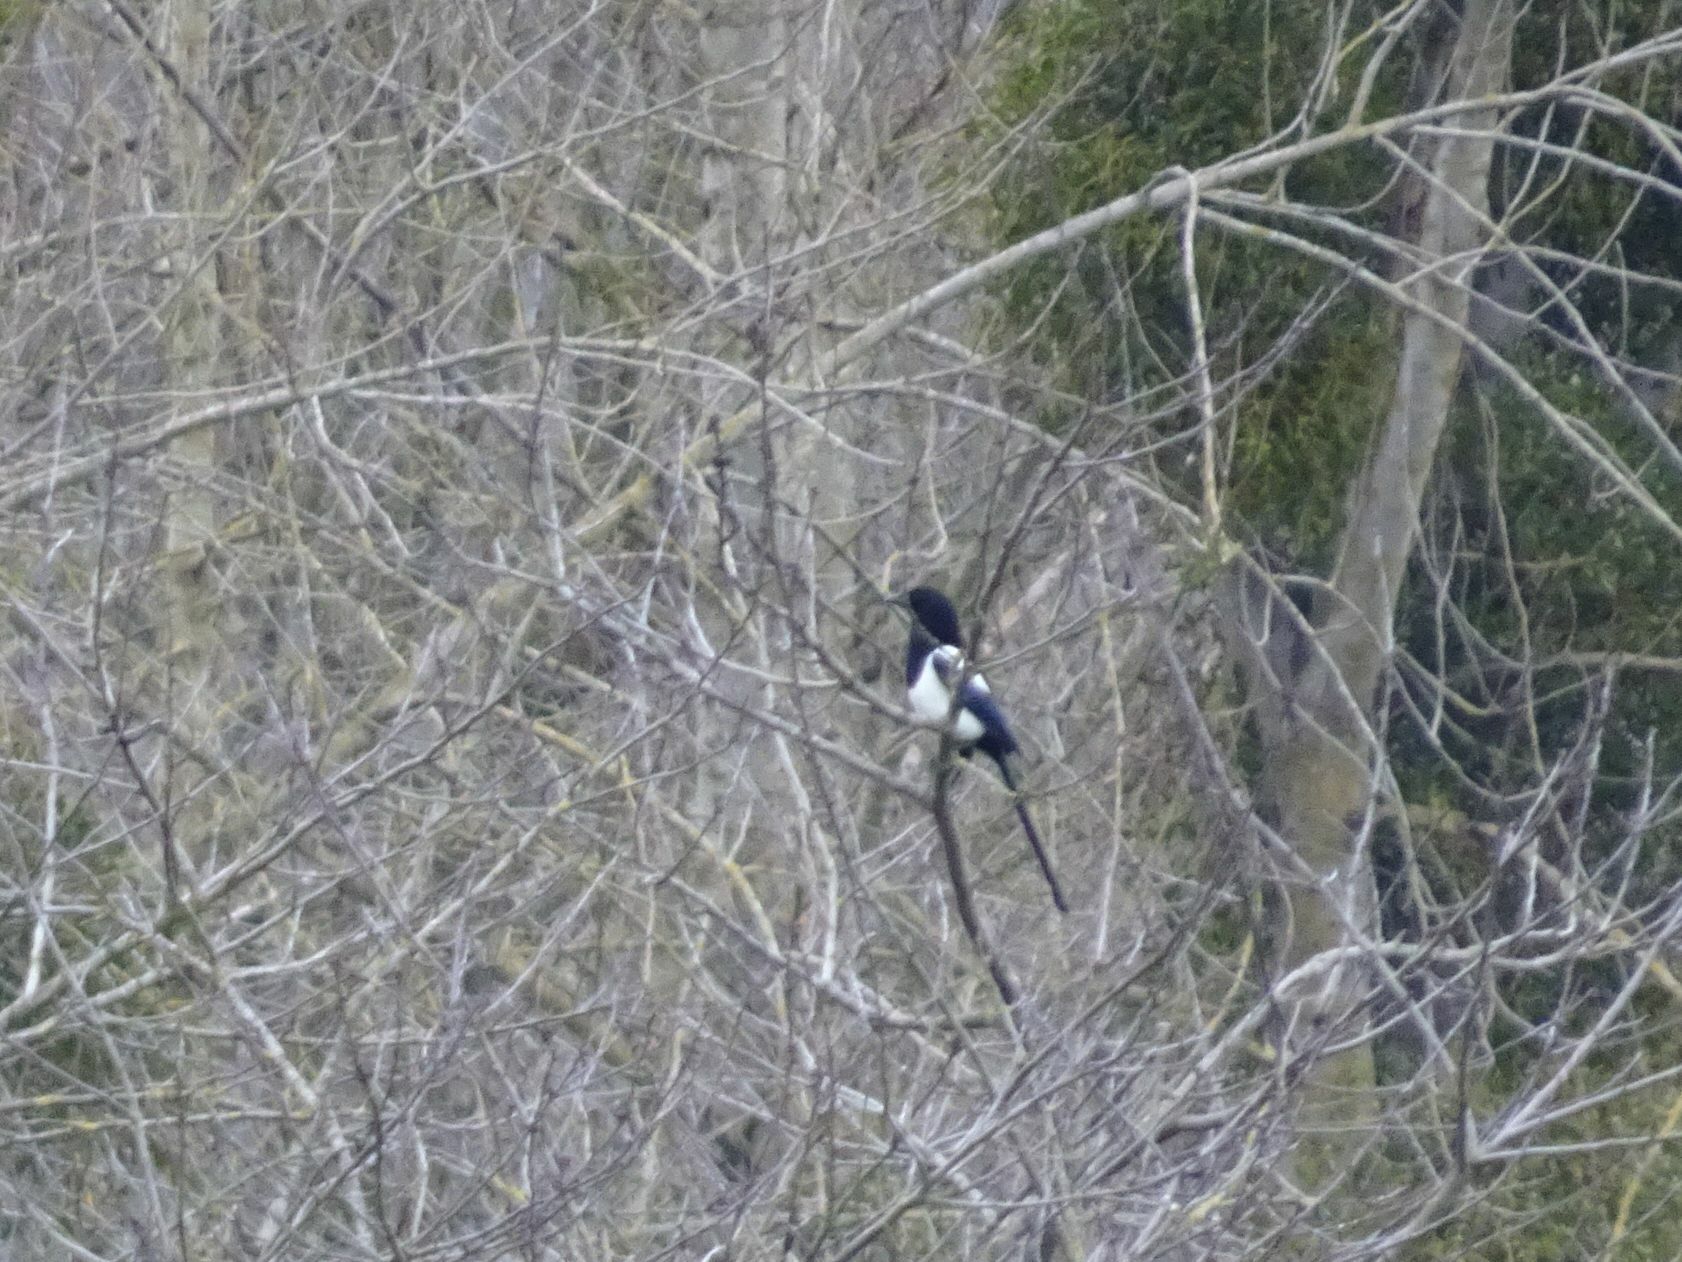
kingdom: Animalia
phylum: Chordata
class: Aves
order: Passeriformes
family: Corvidae
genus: Pica
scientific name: Pica pica
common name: Eurasian magpie
